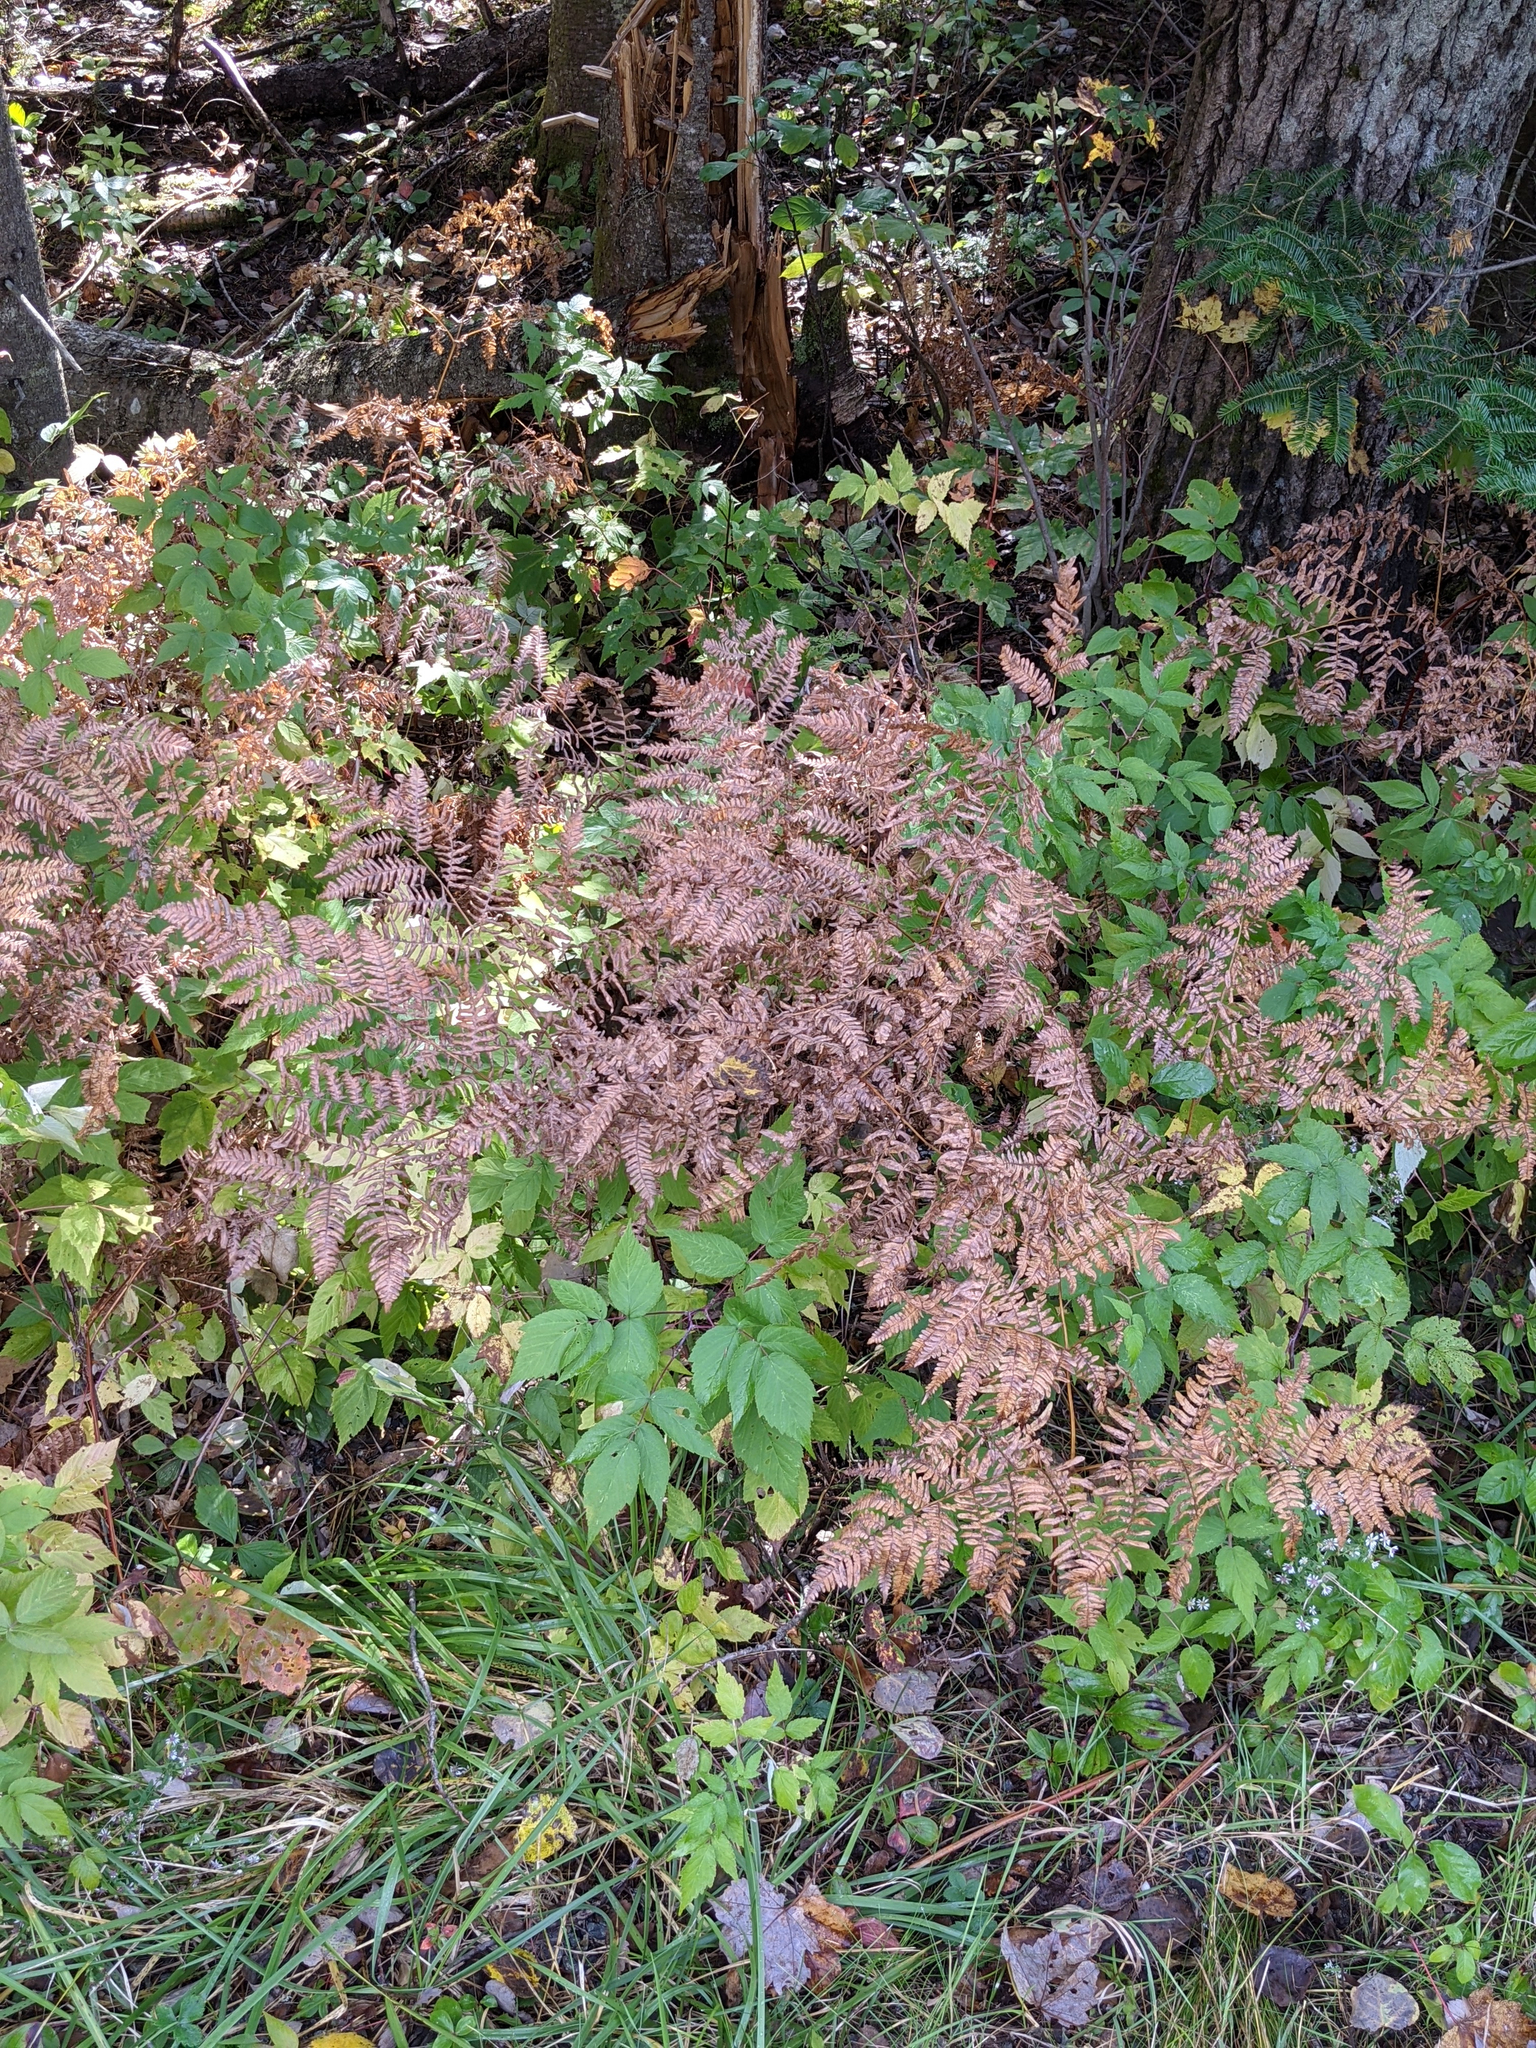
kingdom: Plantae
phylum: Tracheophyta
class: Polypodiopsida
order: Polypodiales
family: Dennstaedtiaceae
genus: Pteridium
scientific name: Pteridium aquilinum
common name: Bracken
